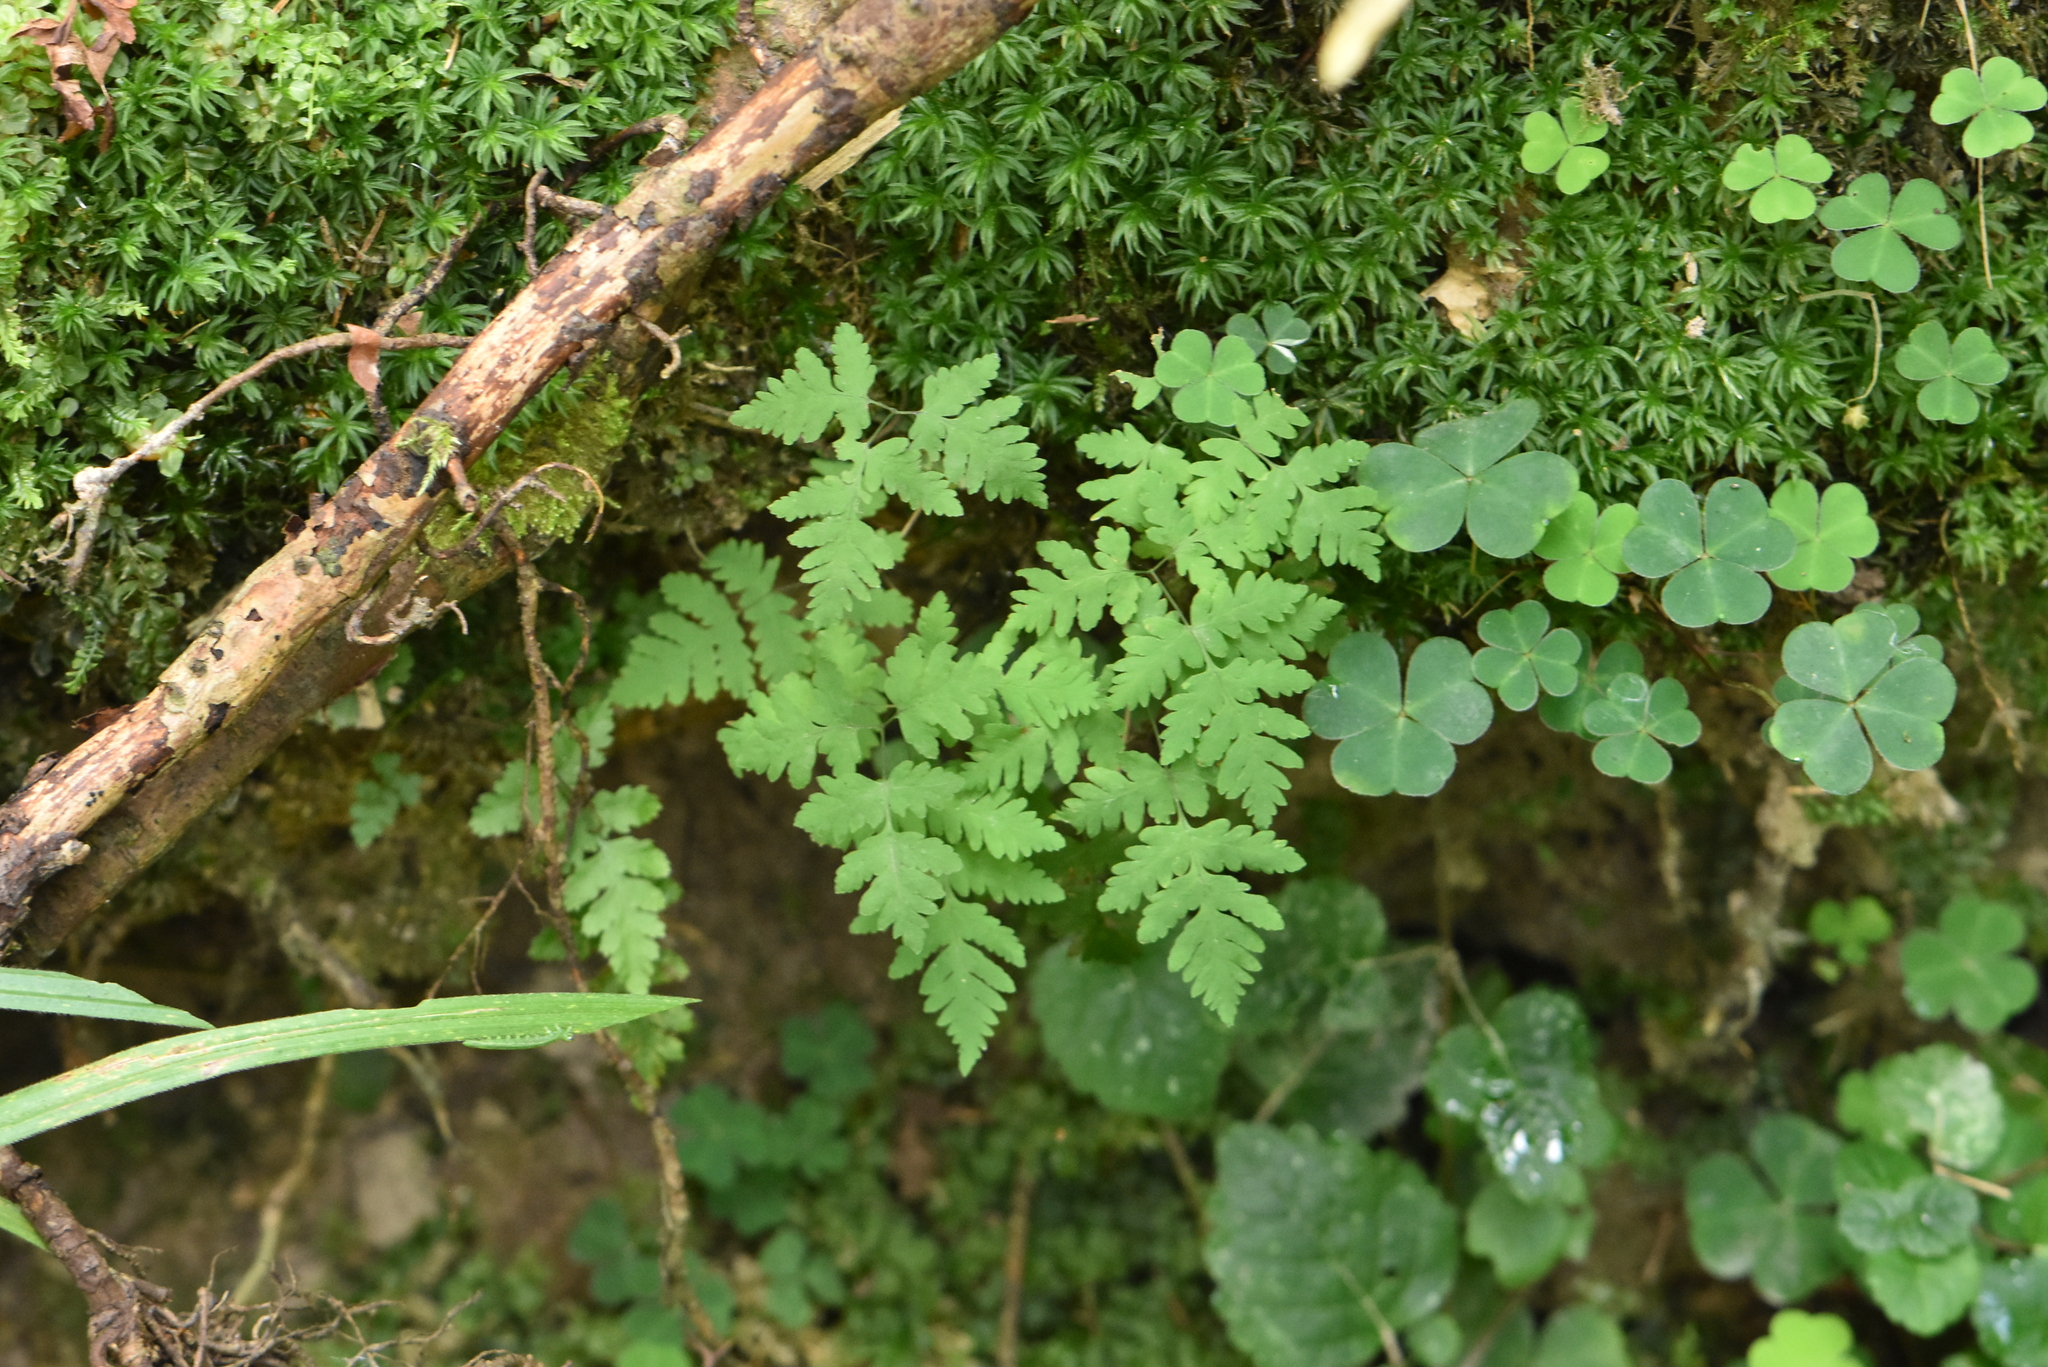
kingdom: Plantae
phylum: Tracheophyta
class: Polypodiopsida
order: Polypodiales
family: Cystopteridaceae
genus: Gymnocarpium
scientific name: Gymnocarpium dryopteris
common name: Oak fern
